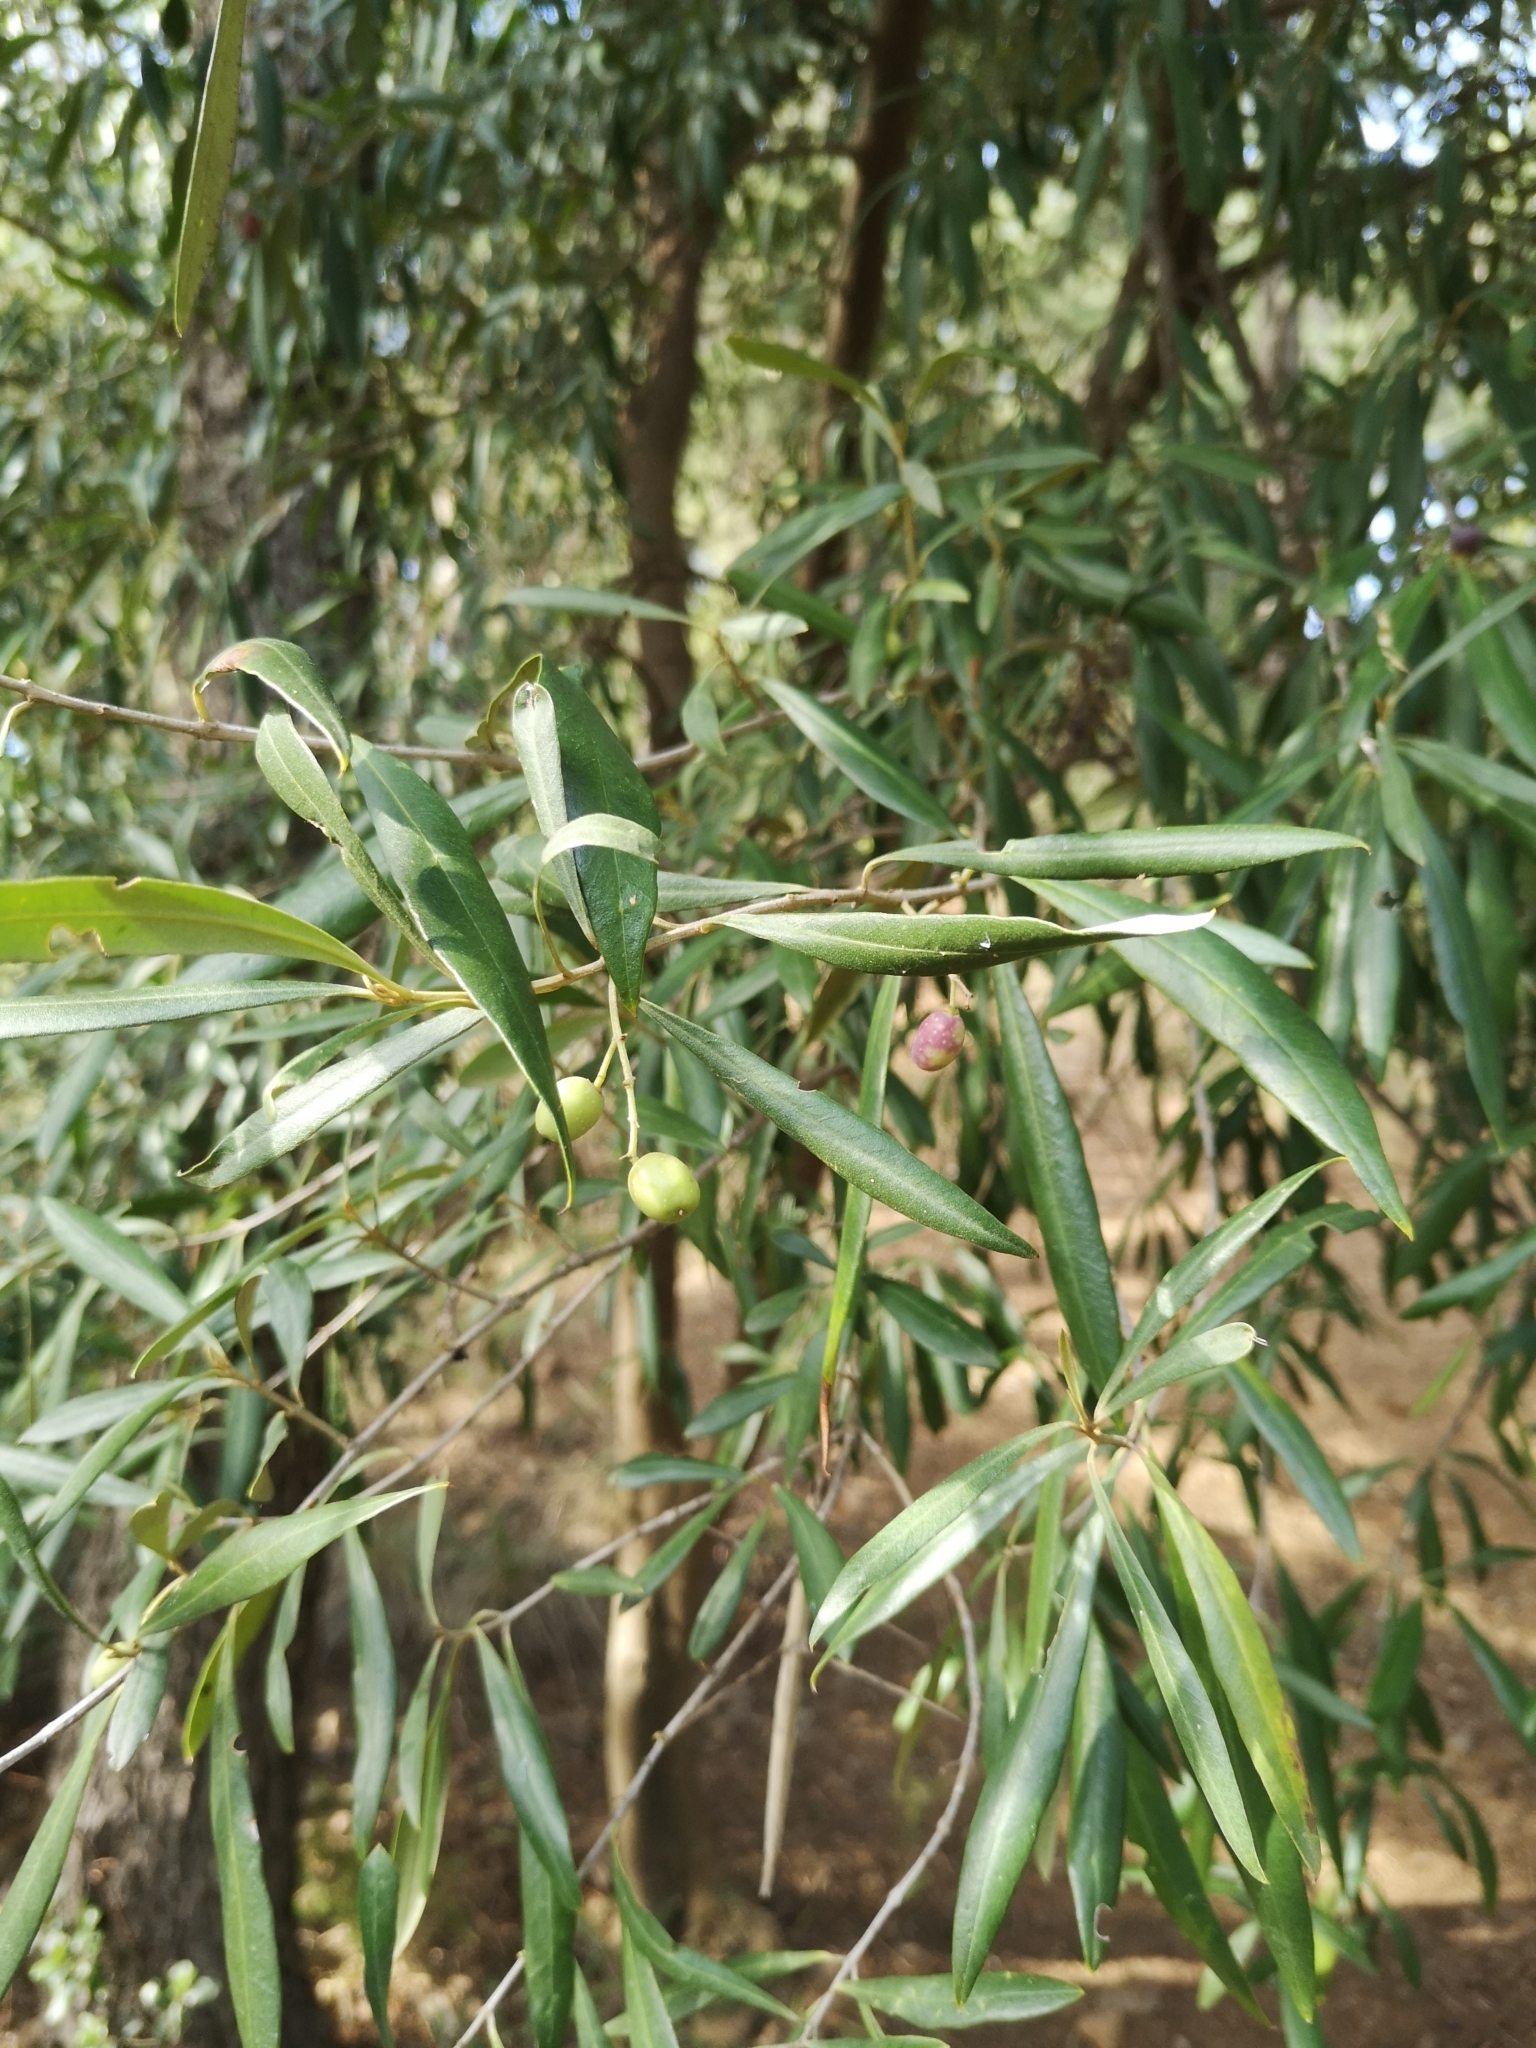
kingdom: Plantae
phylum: Tracheophyta
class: Magnoliopsida
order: Lamiales
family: Oleaceae
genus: Olea
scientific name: Olea europaea
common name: Olive
